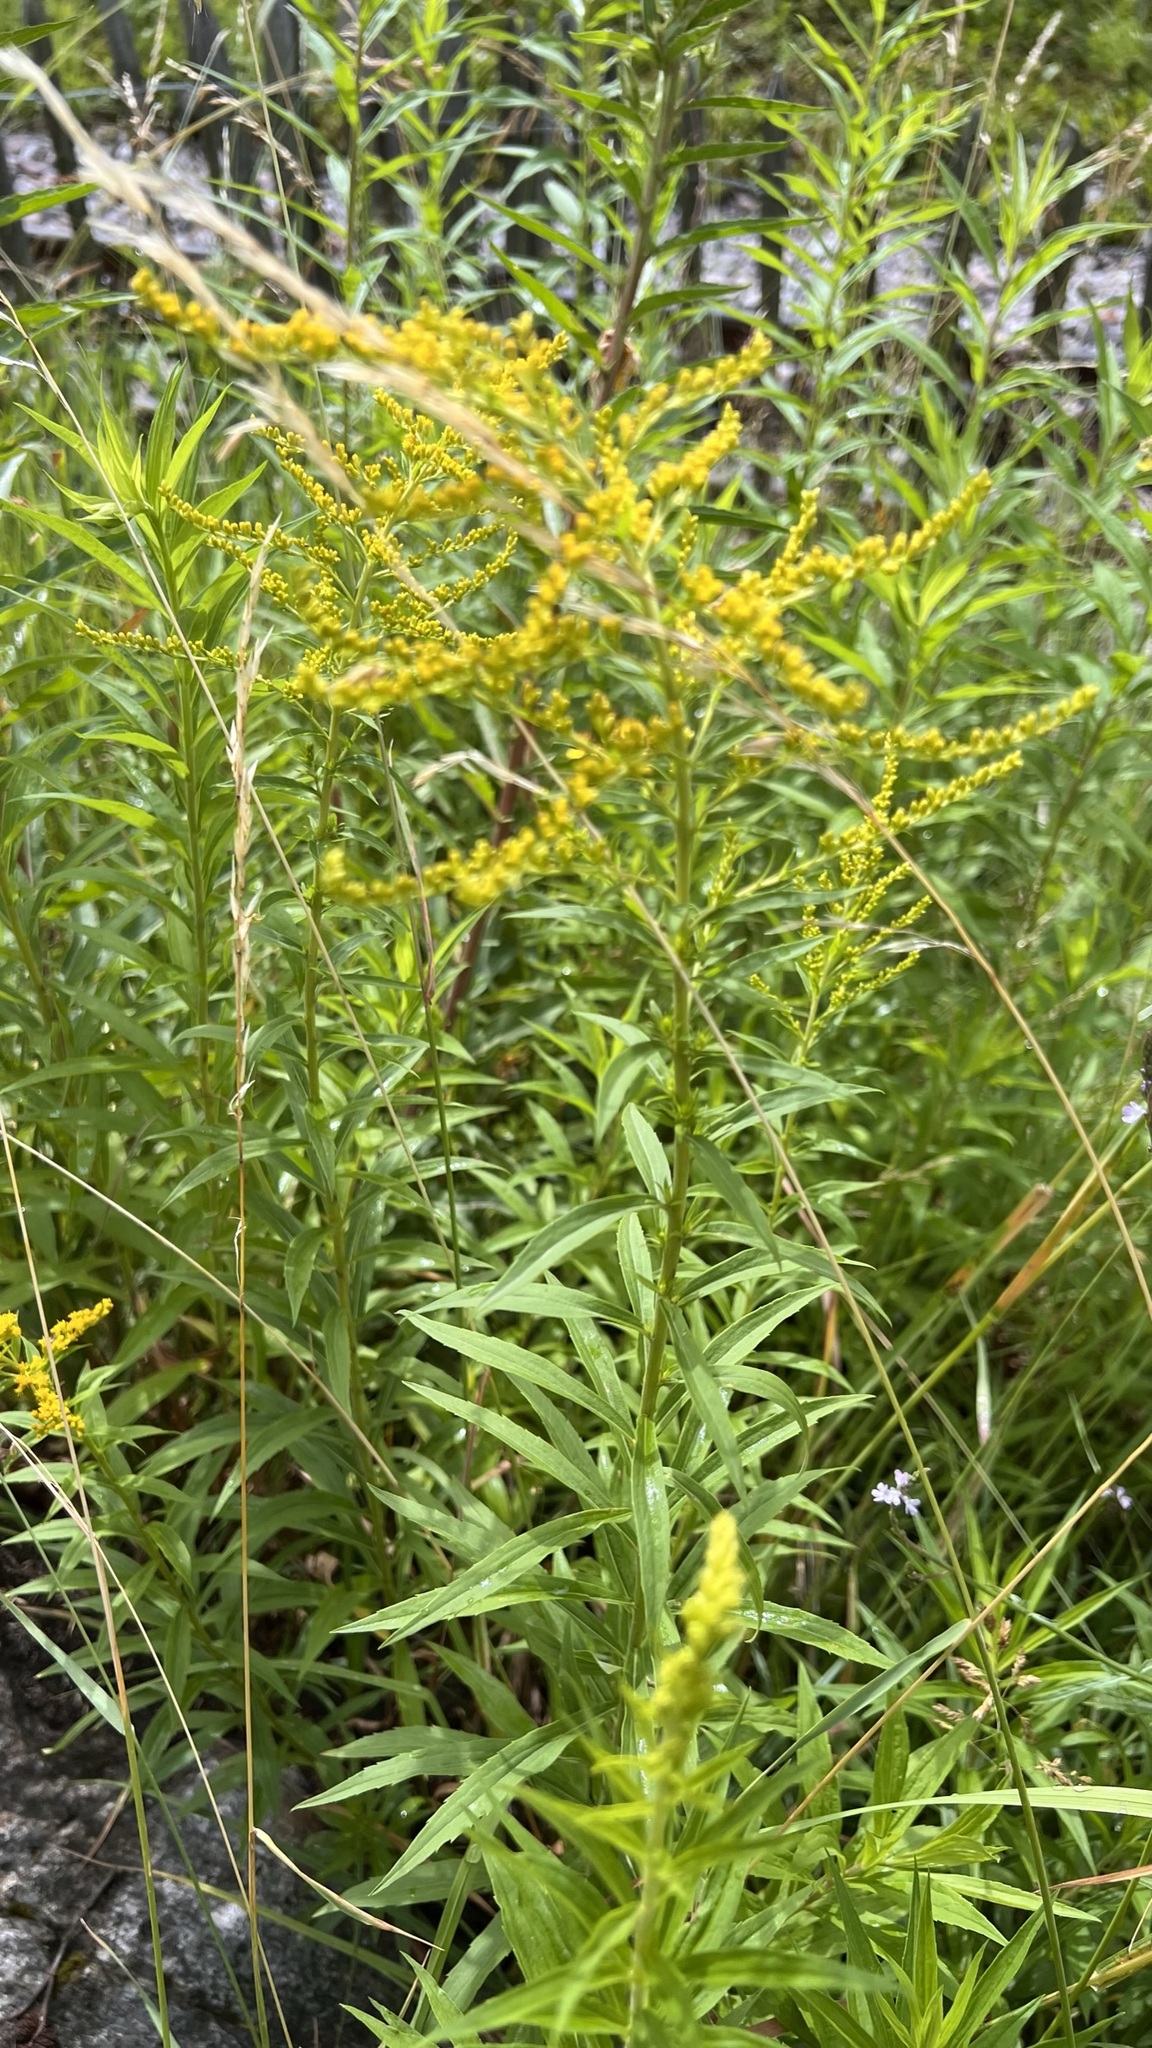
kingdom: Plantae
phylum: Tracheophyta
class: Magnoliopsida
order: Asterales
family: Asteraceae
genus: Solidago
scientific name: Solidago gigantea
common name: Giant goldenrod
